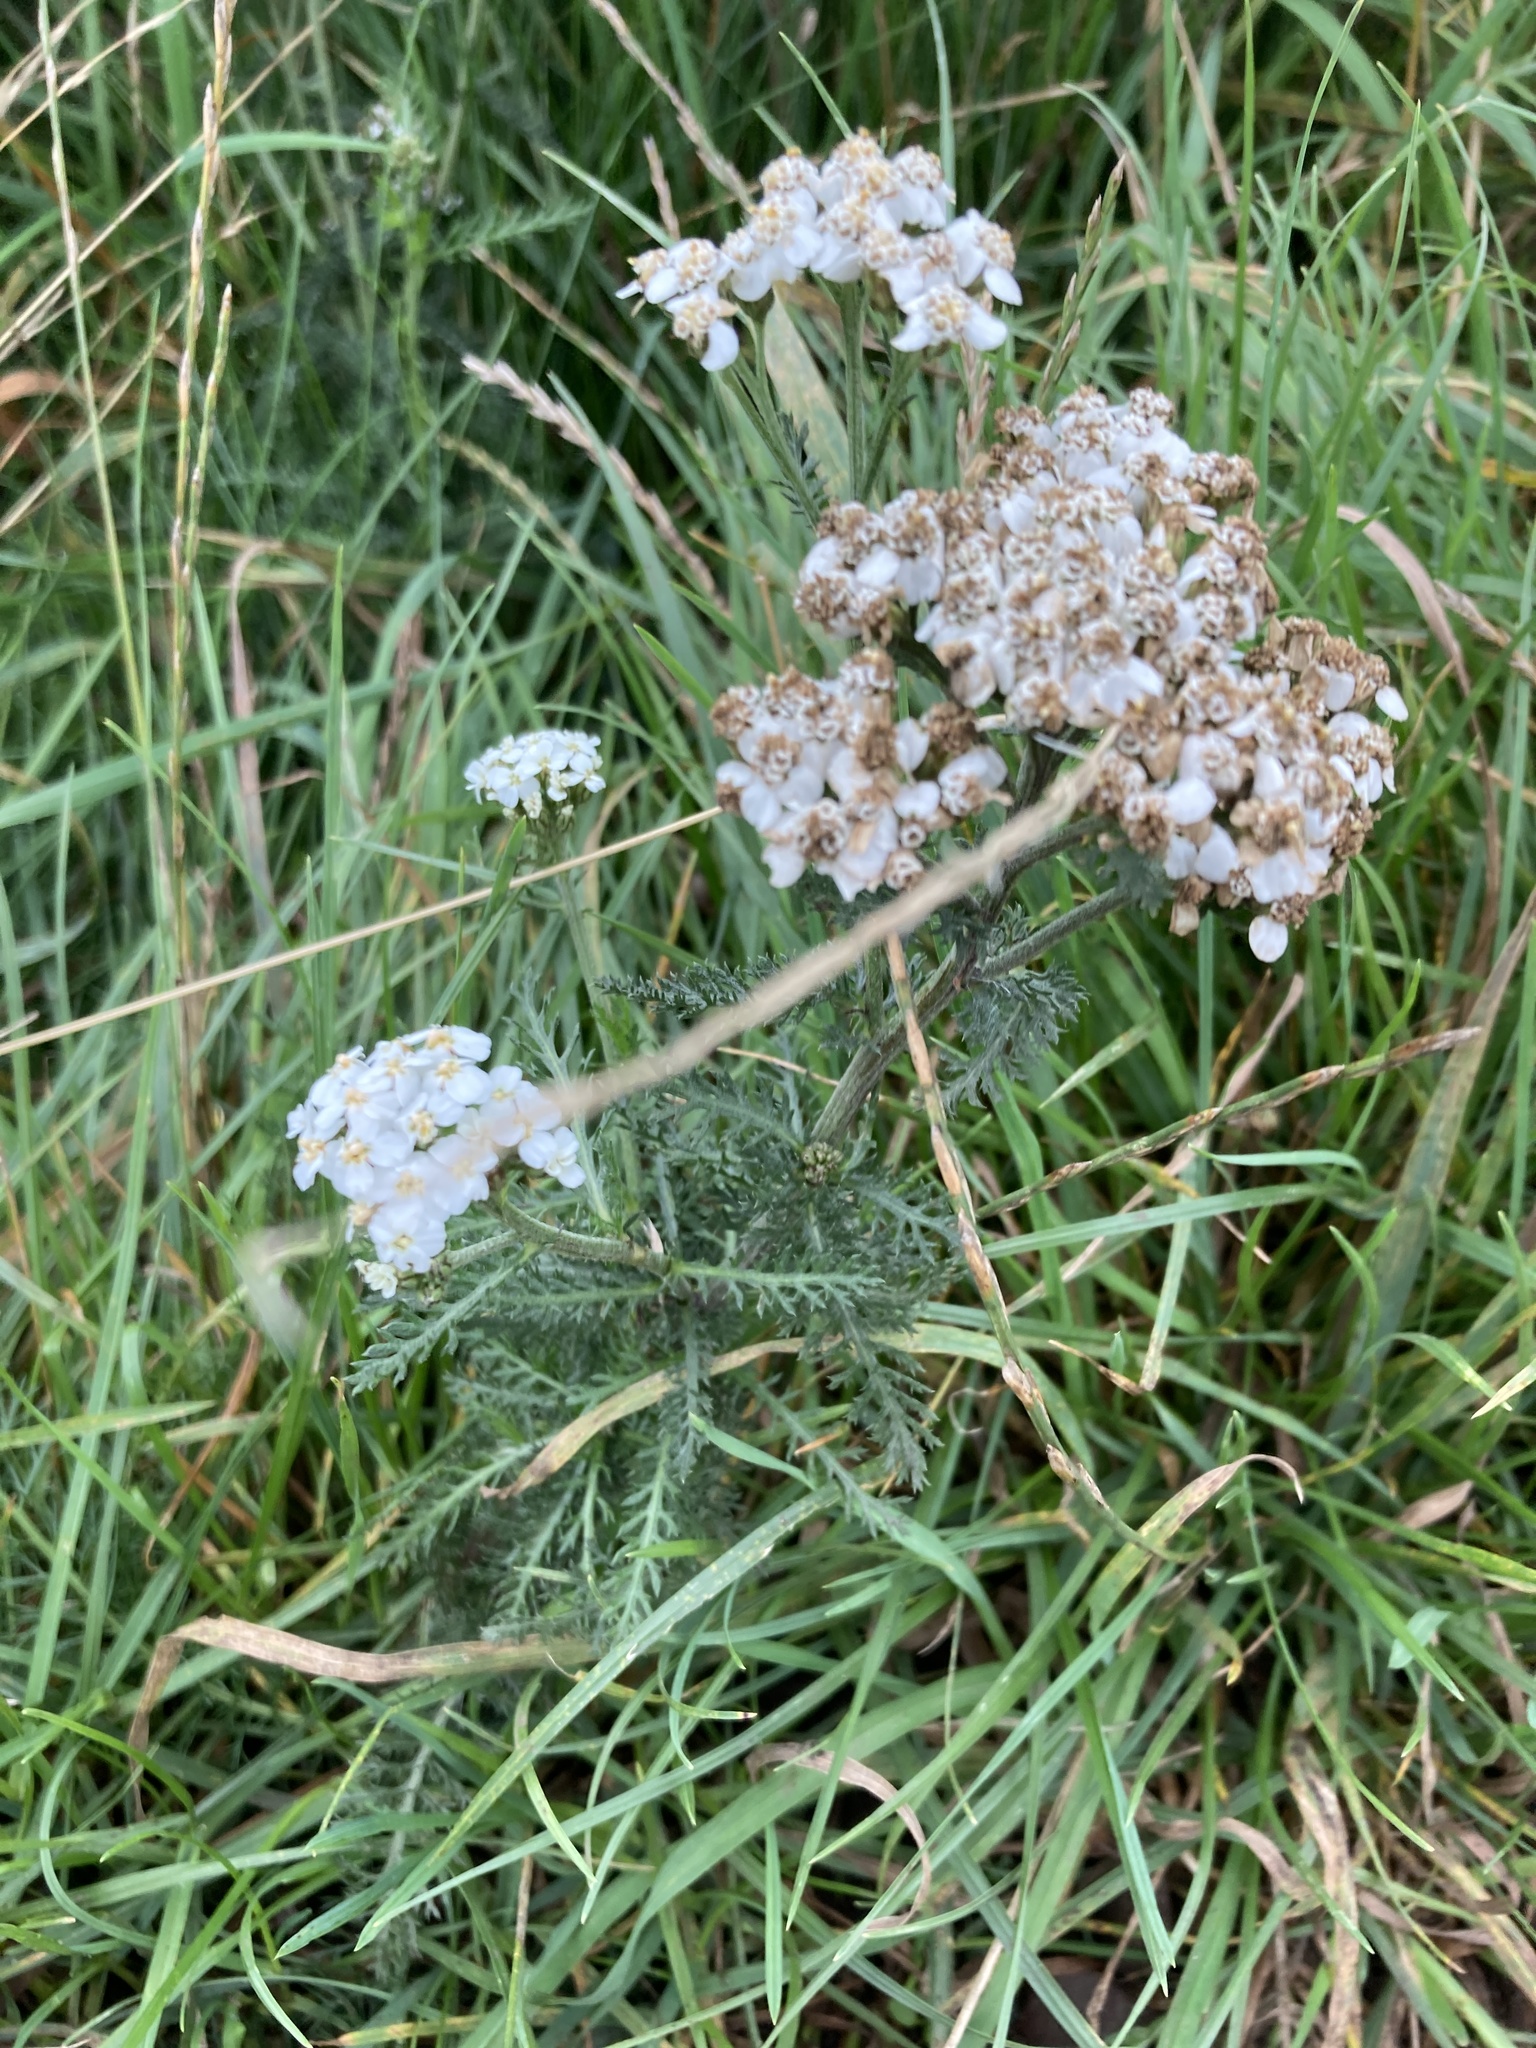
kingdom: Plantae
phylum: Tracheophyta
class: Magnoliopsida
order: Asterales
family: Asteraceae
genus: Achillea
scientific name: Achillea millefolium
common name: Yarrow
